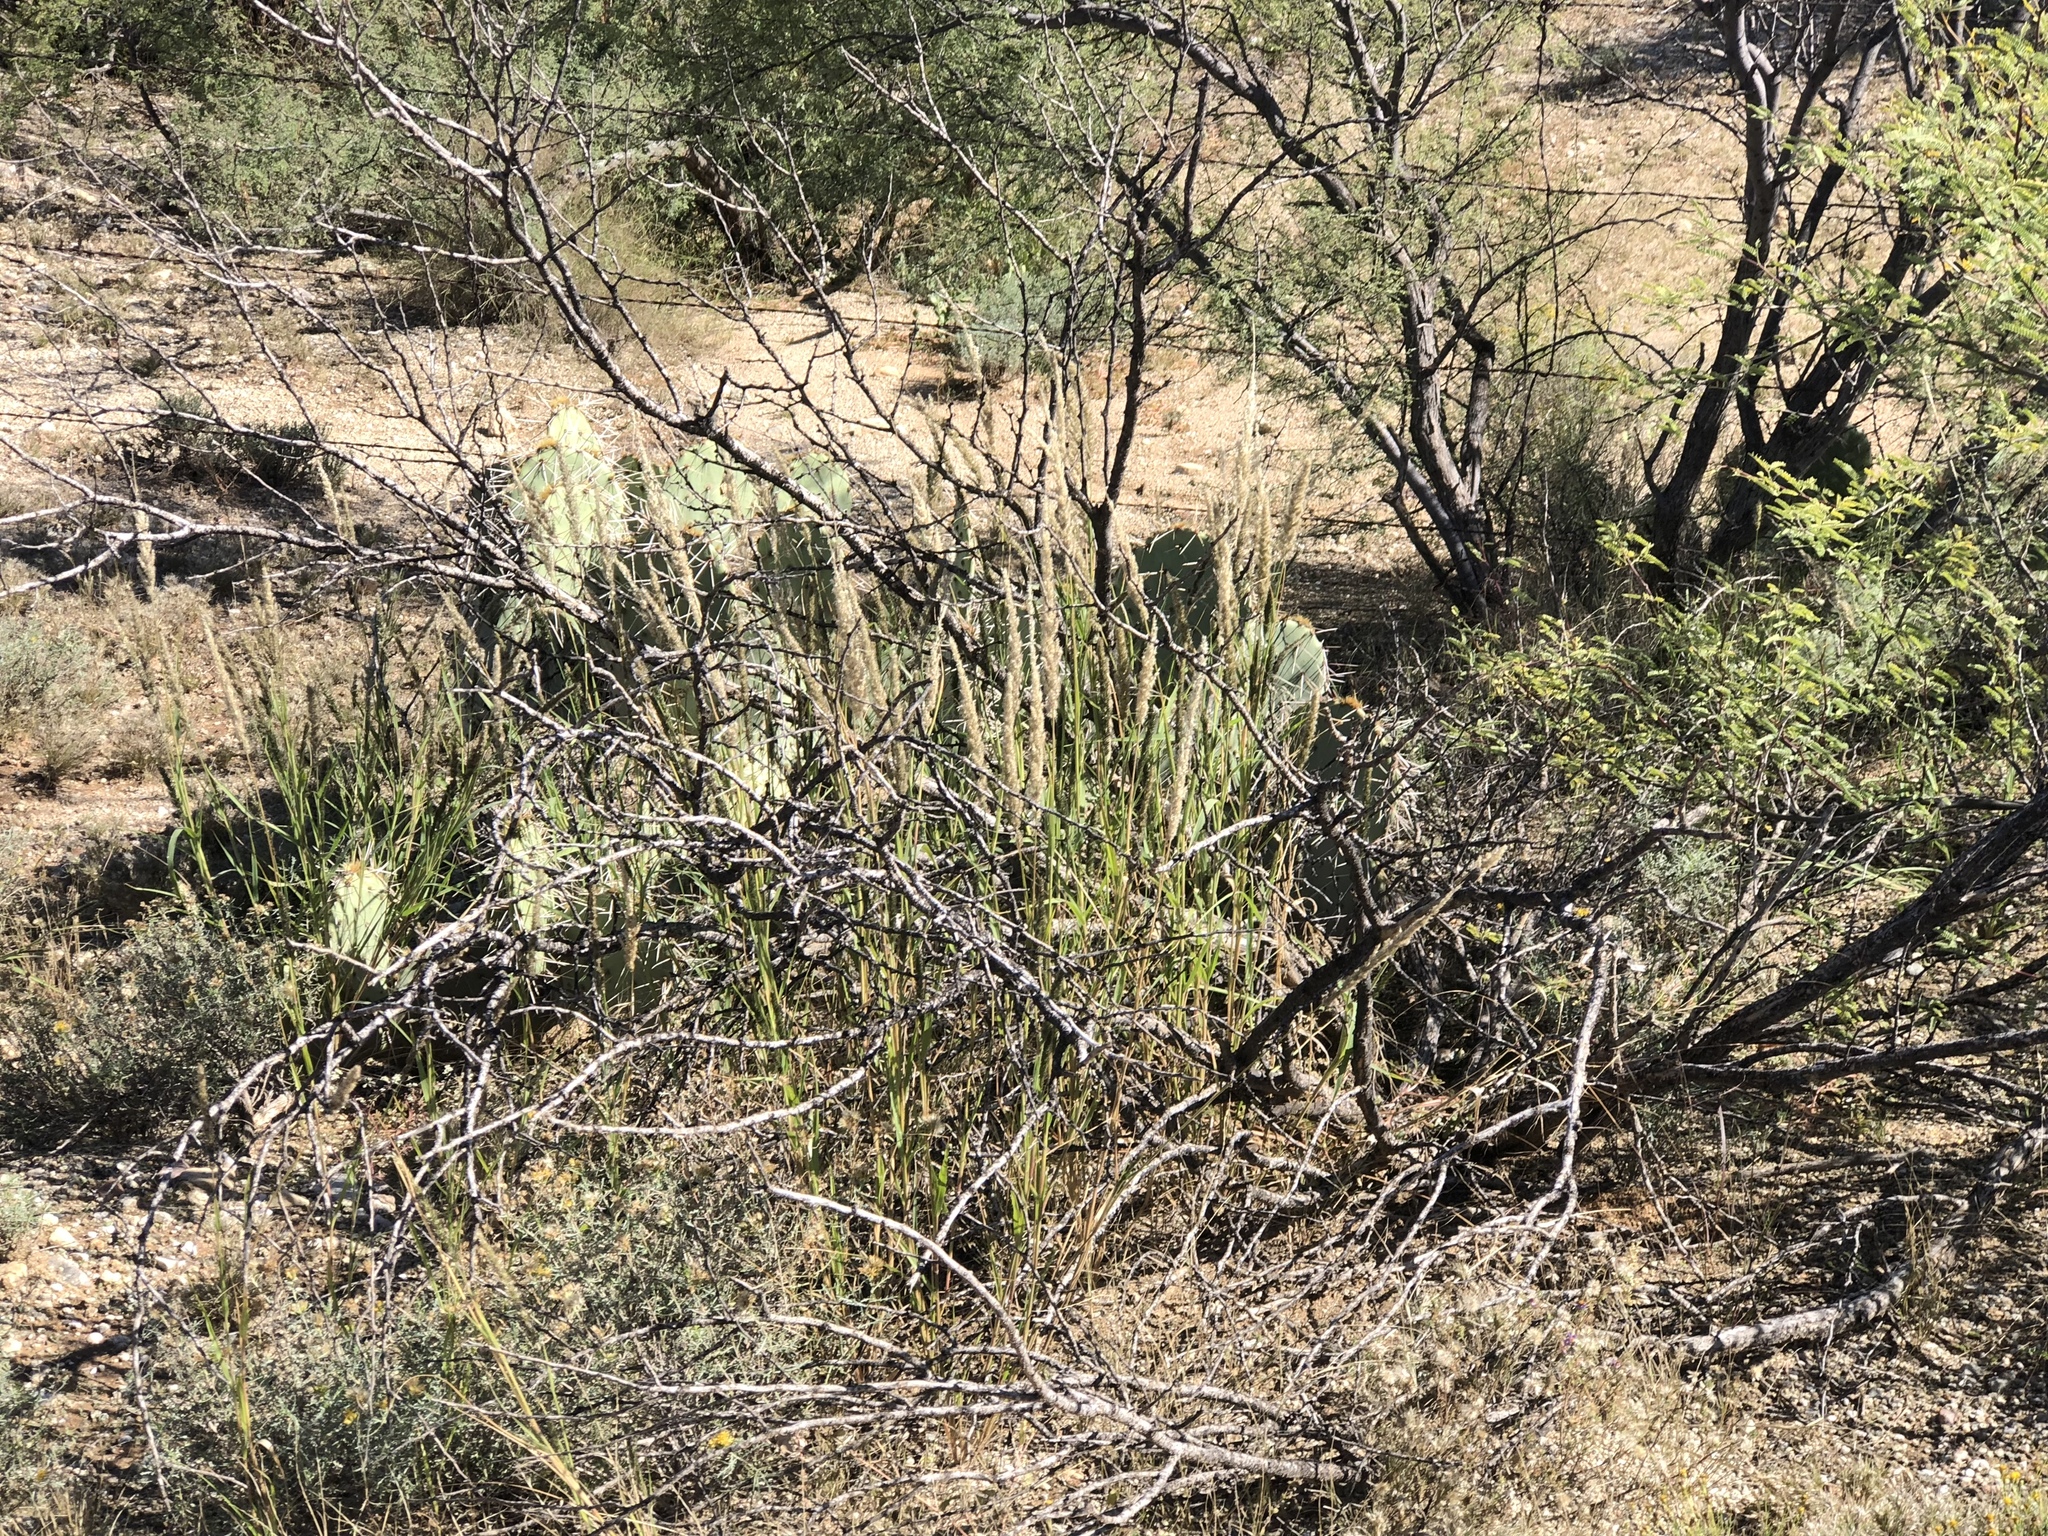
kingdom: Plantae
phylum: Tracheophyta
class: Liliopsida
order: Poales
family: Poaceae
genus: Enneapogon
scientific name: Enneapogon cenchroides
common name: Soft feather pappusgrass
